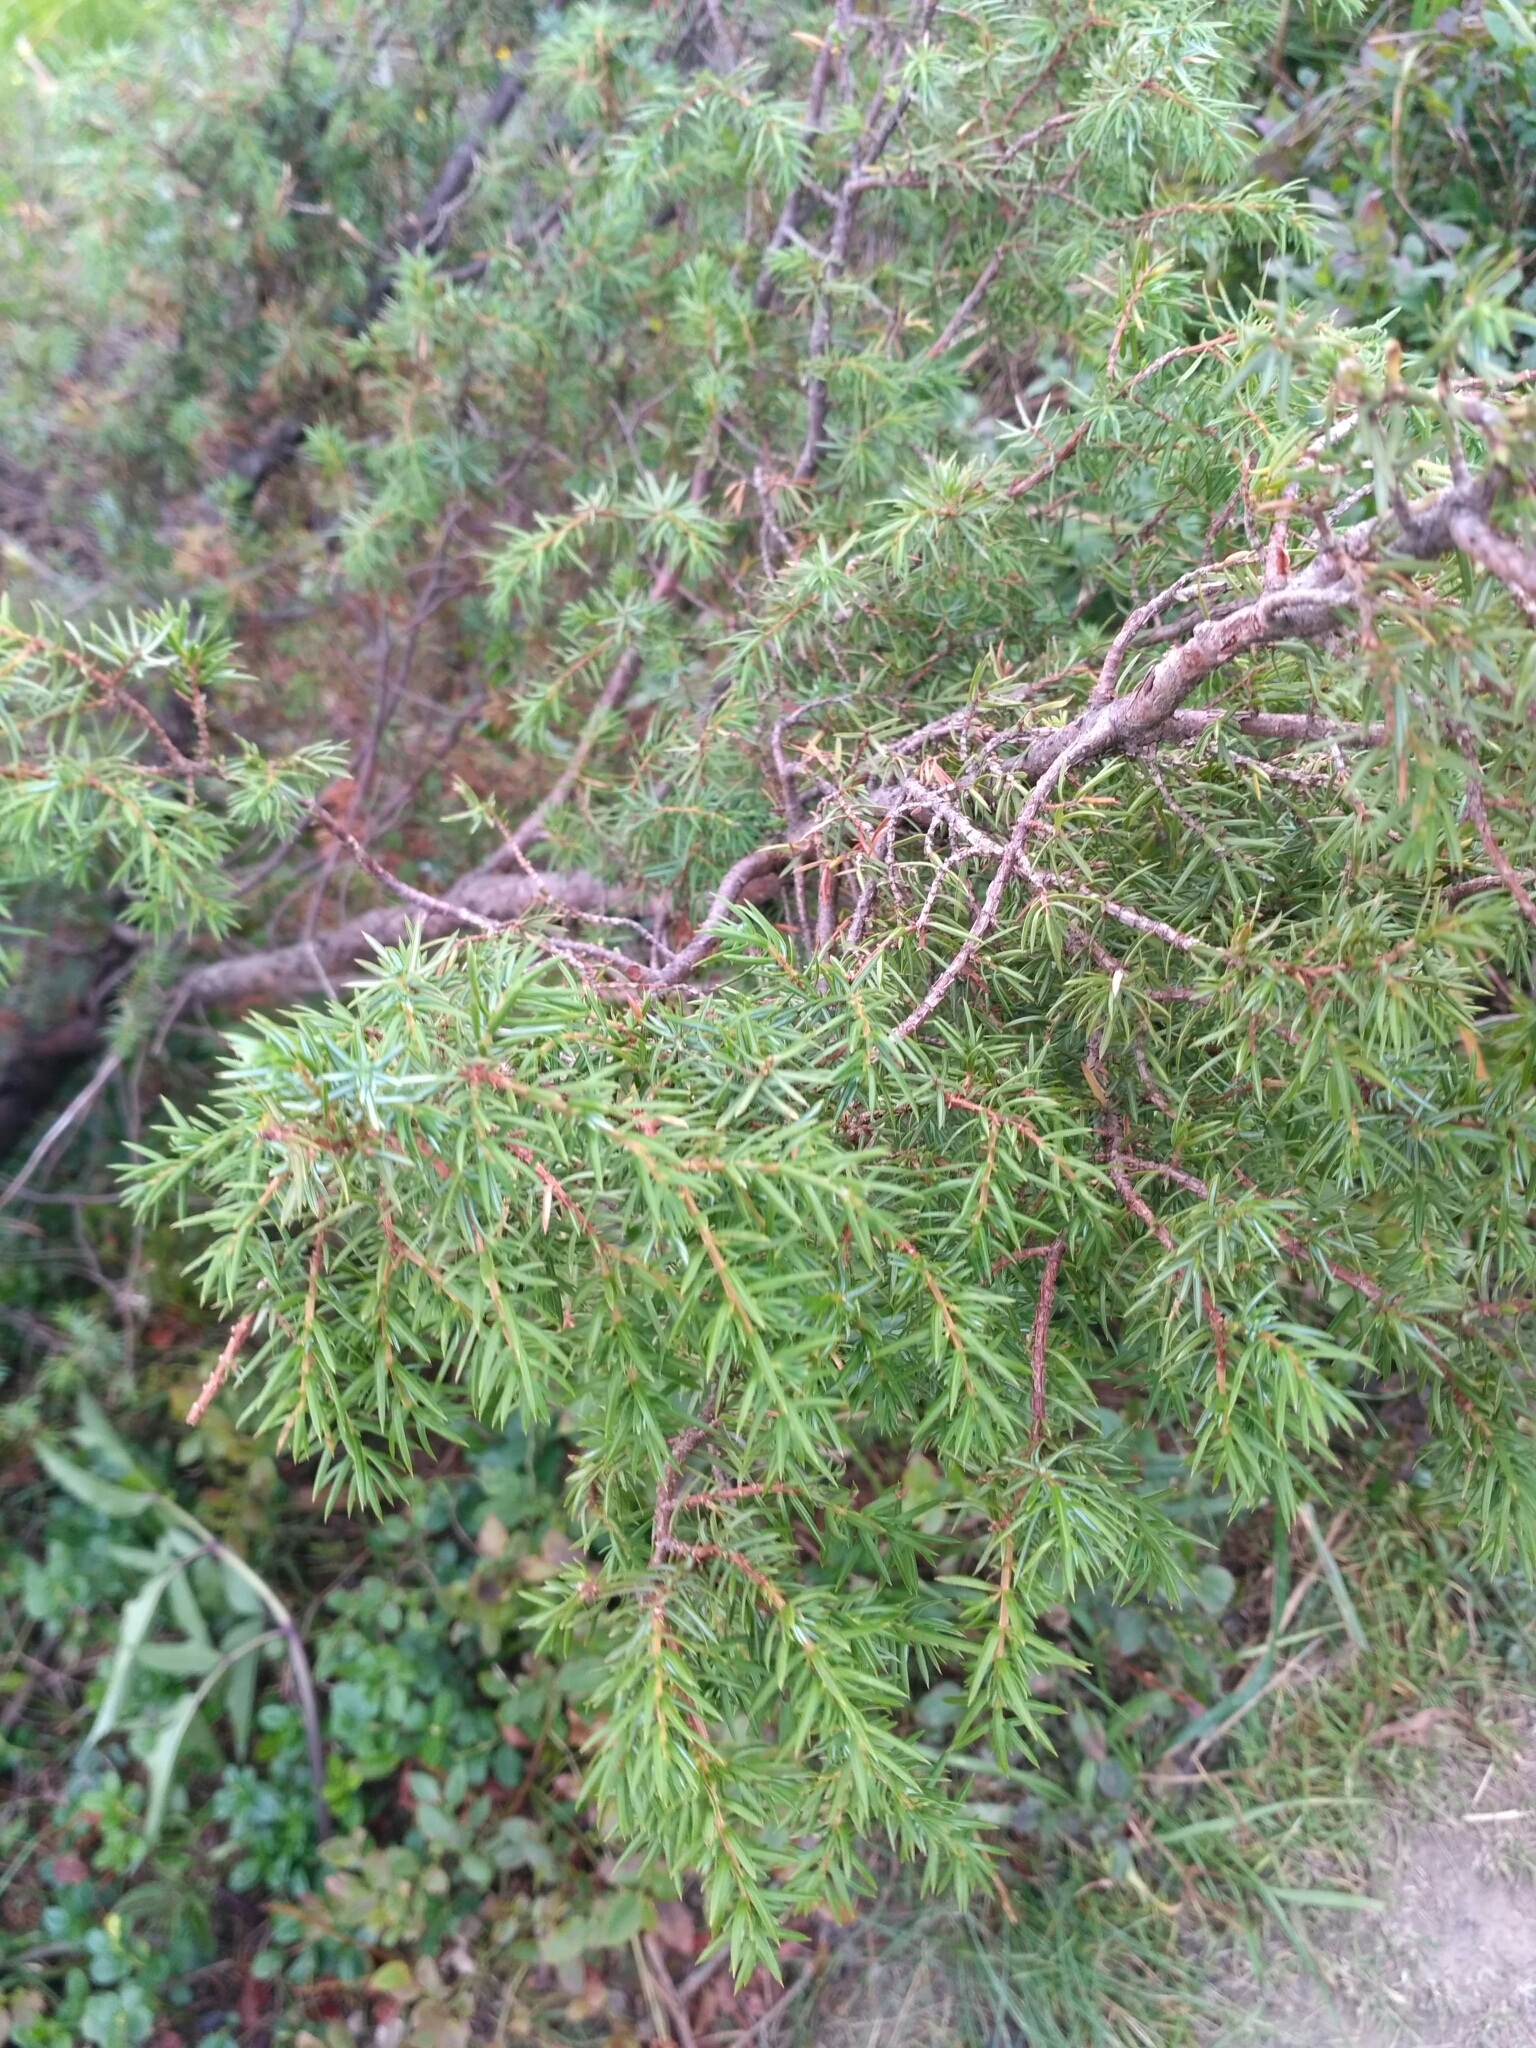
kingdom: Plantae
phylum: Tracheophyta
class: Pinopsida
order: Pinales
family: Cupressaceae
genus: Juniperus
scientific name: Juniperus communis
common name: Common juniper
